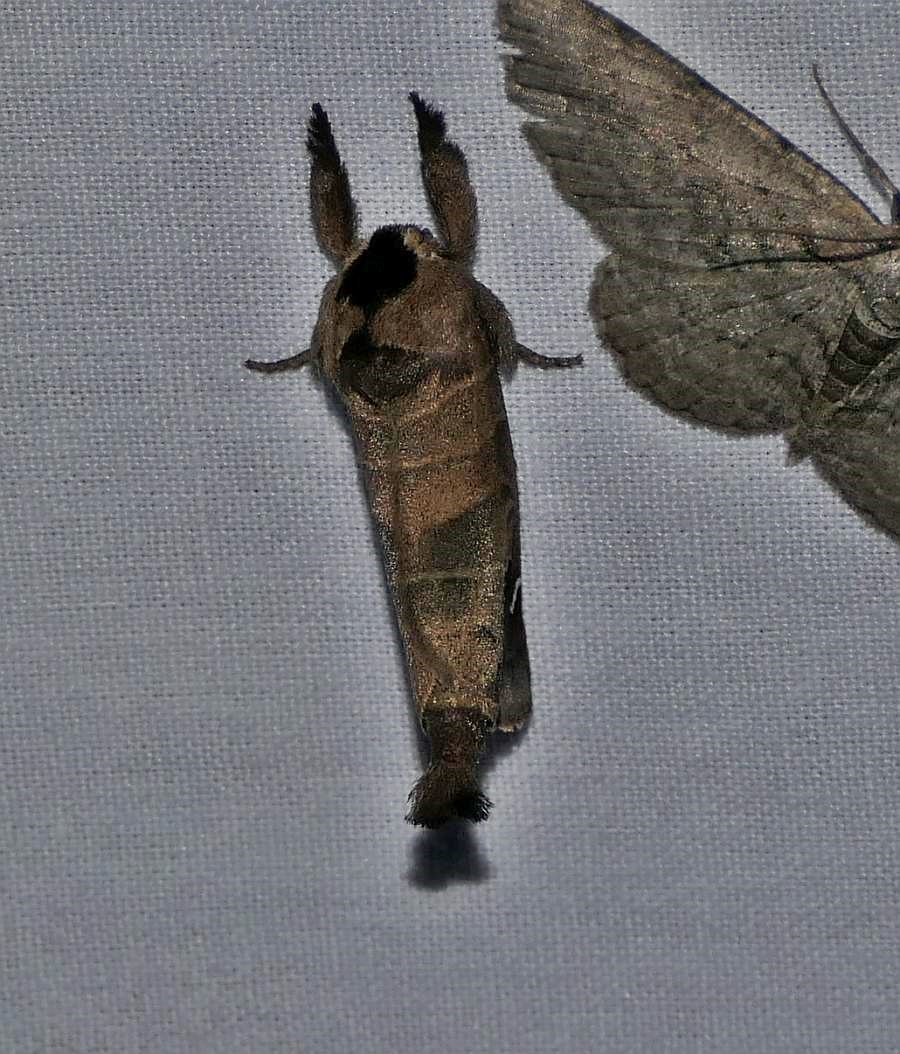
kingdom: Animalia
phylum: Arthropoda
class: Insecta
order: Lepidoptera
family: Notodontidae
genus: Clostera
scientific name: Clostera albosigma
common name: Sigmoid prominent
